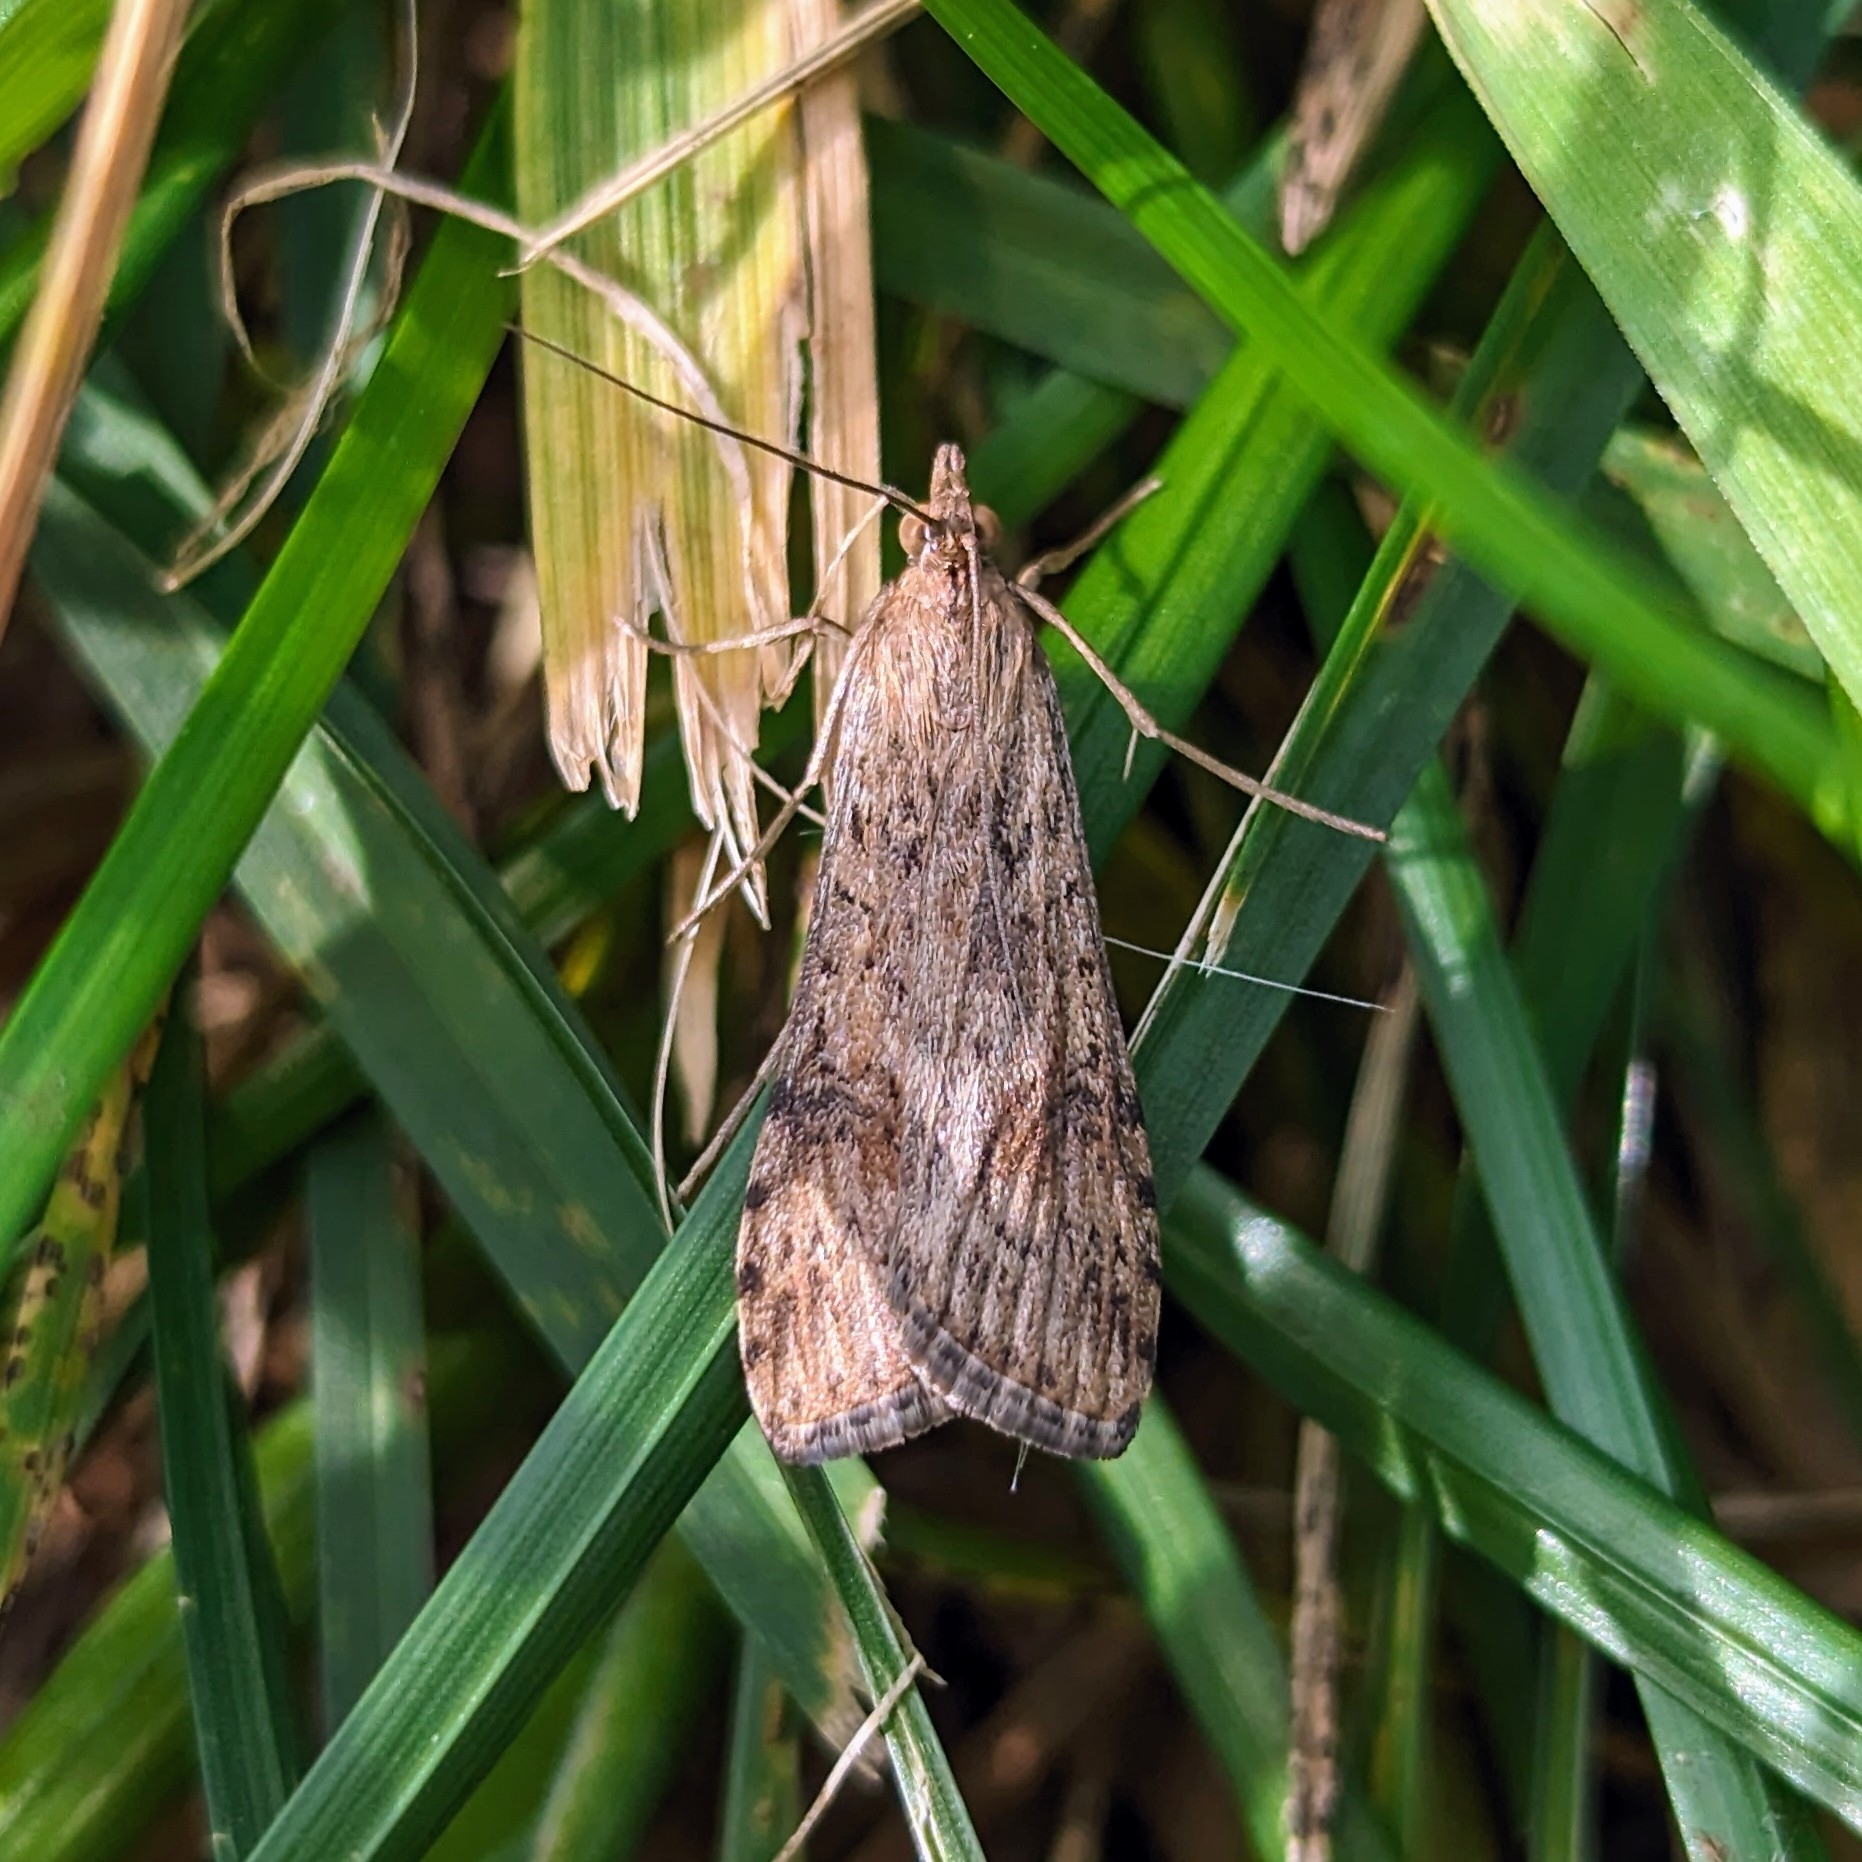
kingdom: Animalia
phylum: Arthropoda
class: Insecta
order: Lepidoptera
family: Crambidae
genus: Nomophila
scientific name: Nomophila nearctica
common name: American rush veneer
